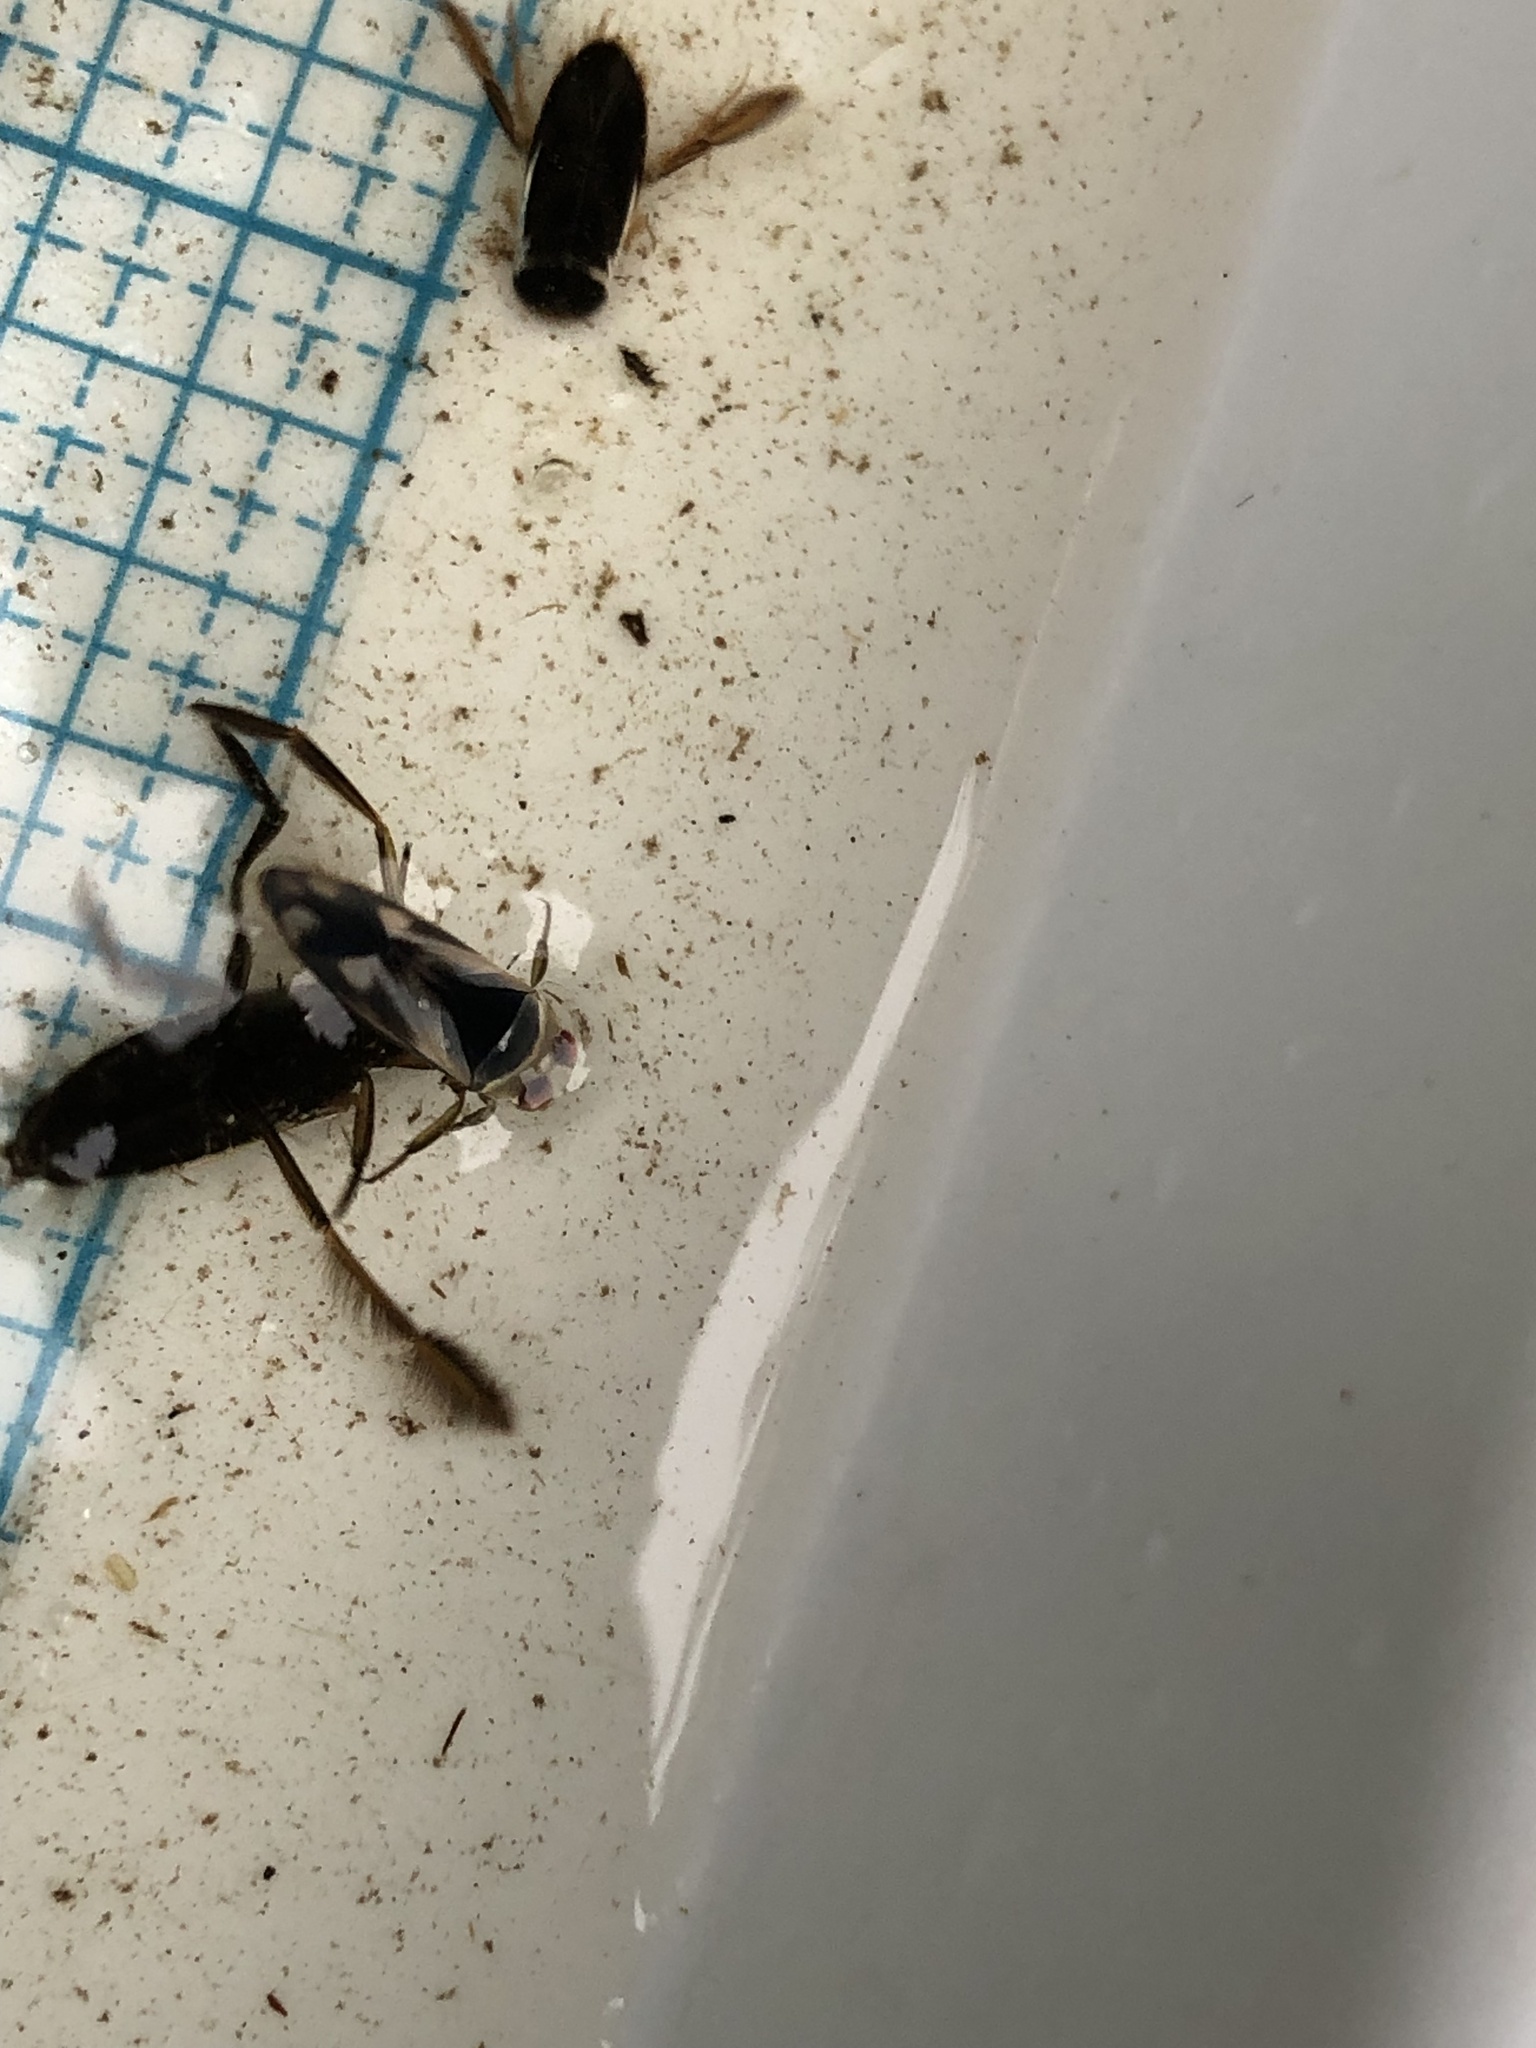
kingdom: Animalia
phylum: Arthropoda
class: Insecta
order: Hemiptera
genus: Paranecta
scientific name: Paranecta
